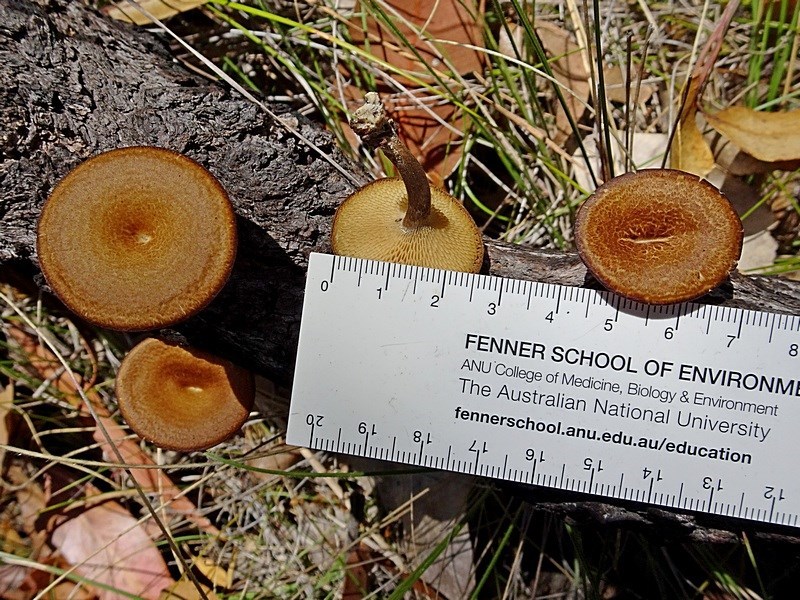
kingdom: Fungi
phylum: Basidiomycota
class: Agaricomycetes
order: Polyporales
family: Polyporaceae
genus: Lentinus
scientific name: Lentinus arcularius
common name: Spring polypore
